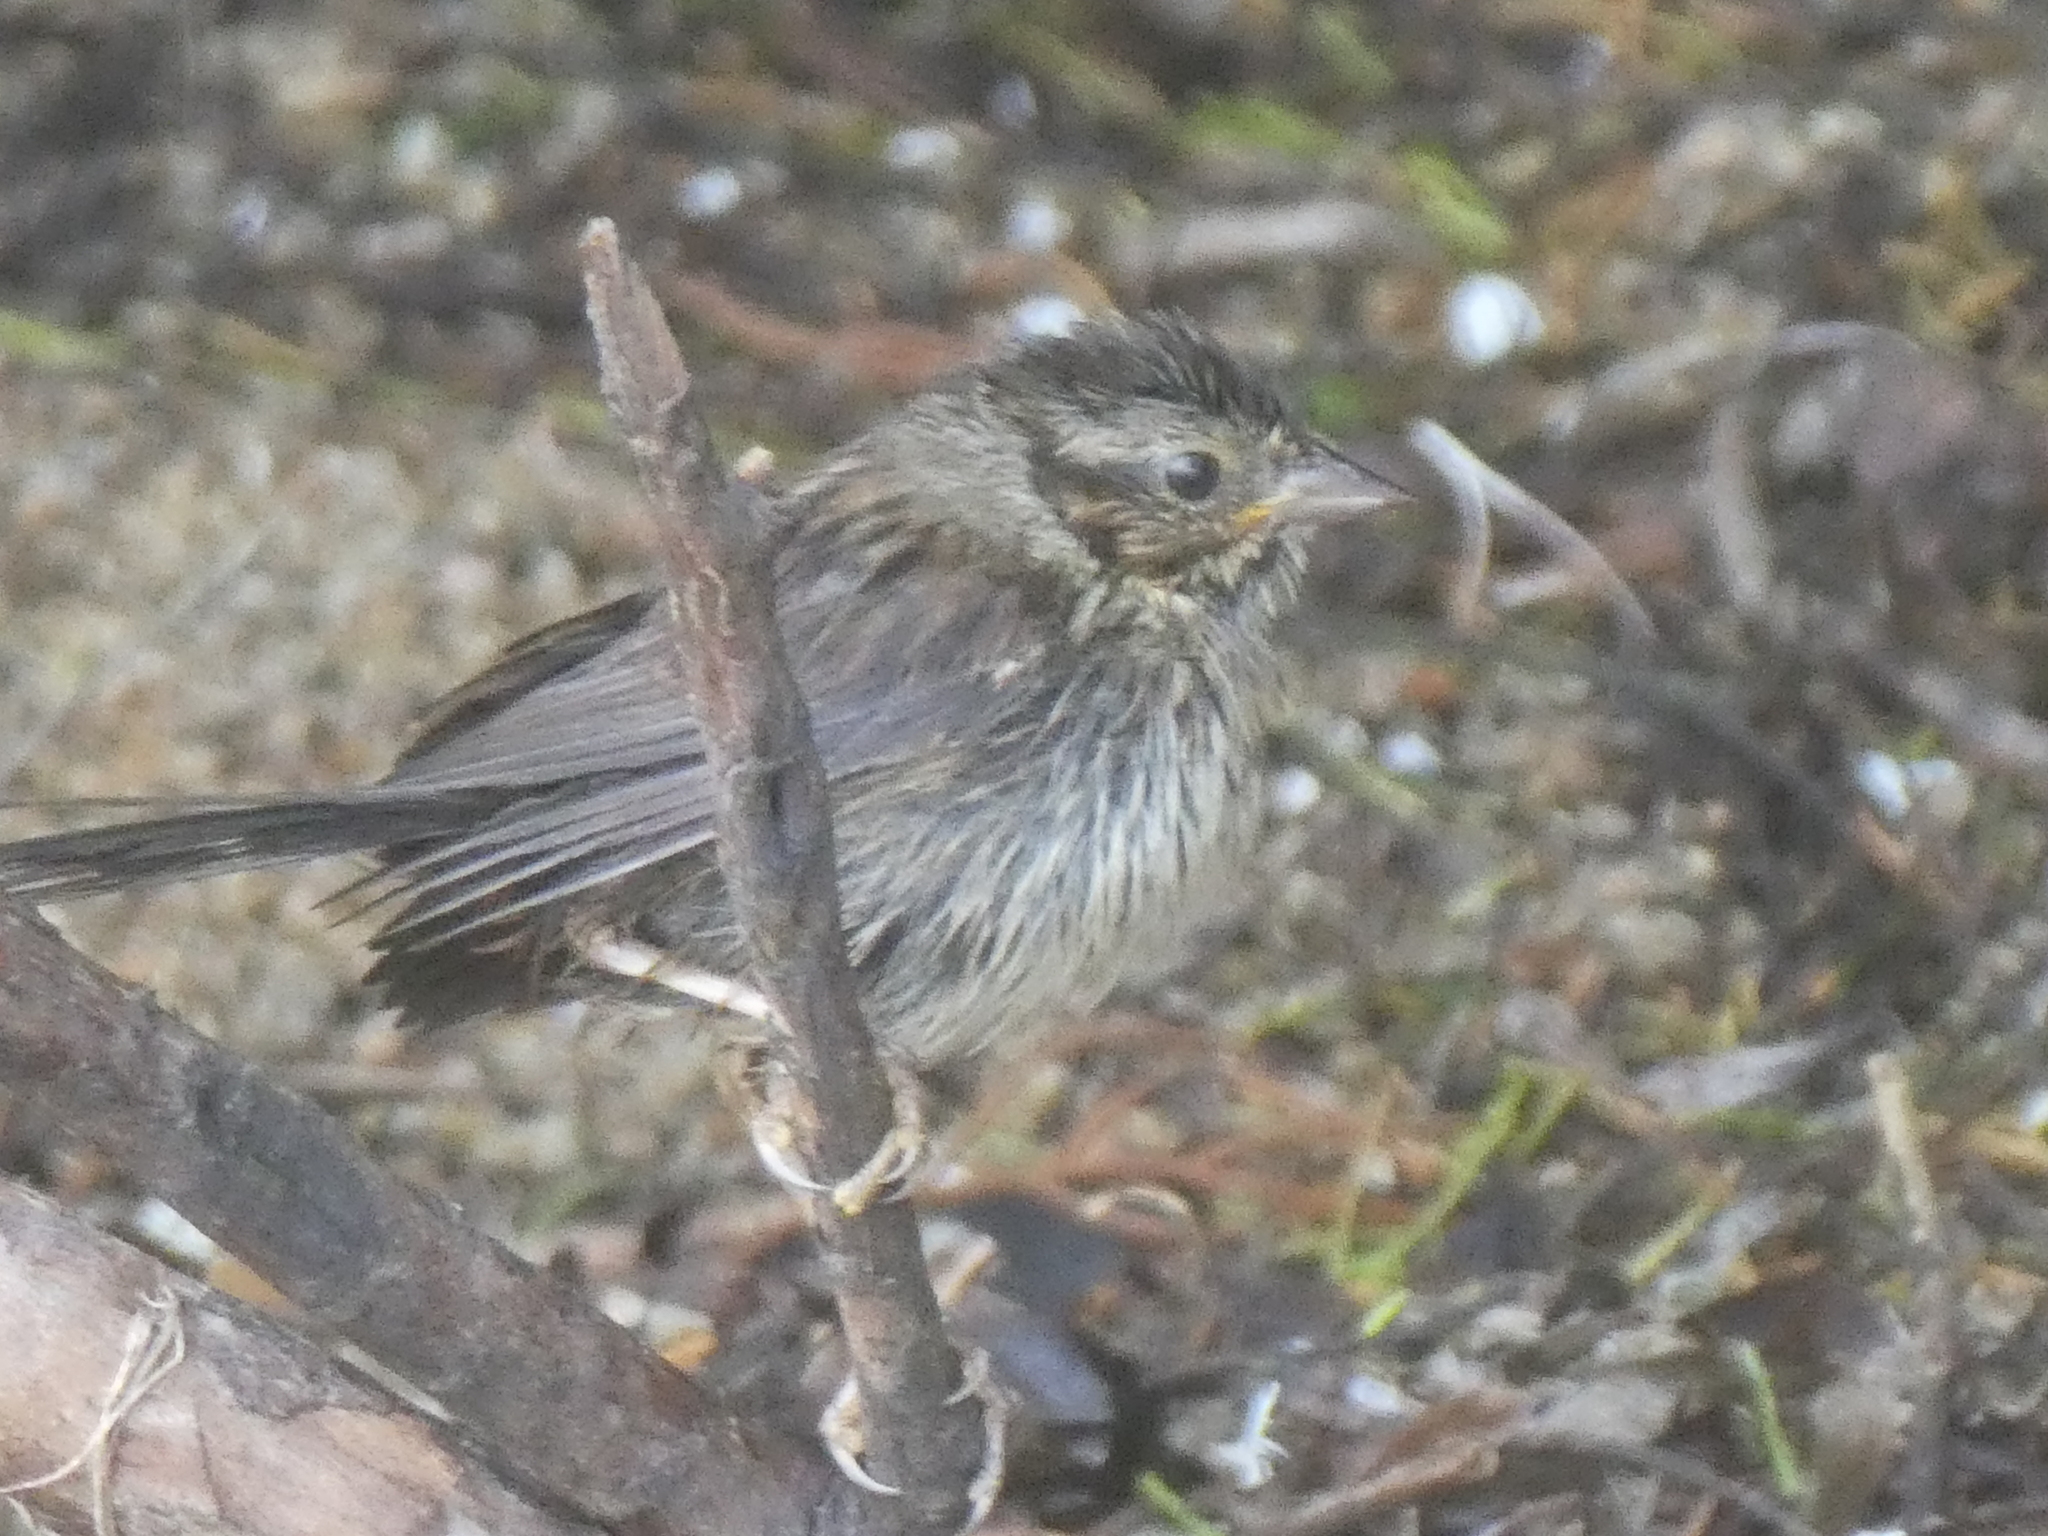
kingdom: Animalia
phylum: Chordata
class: Aves
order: Passeriformes
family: Passerellidae
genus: Melospiza
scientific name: Melospiza melodia
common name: Song sparrow
